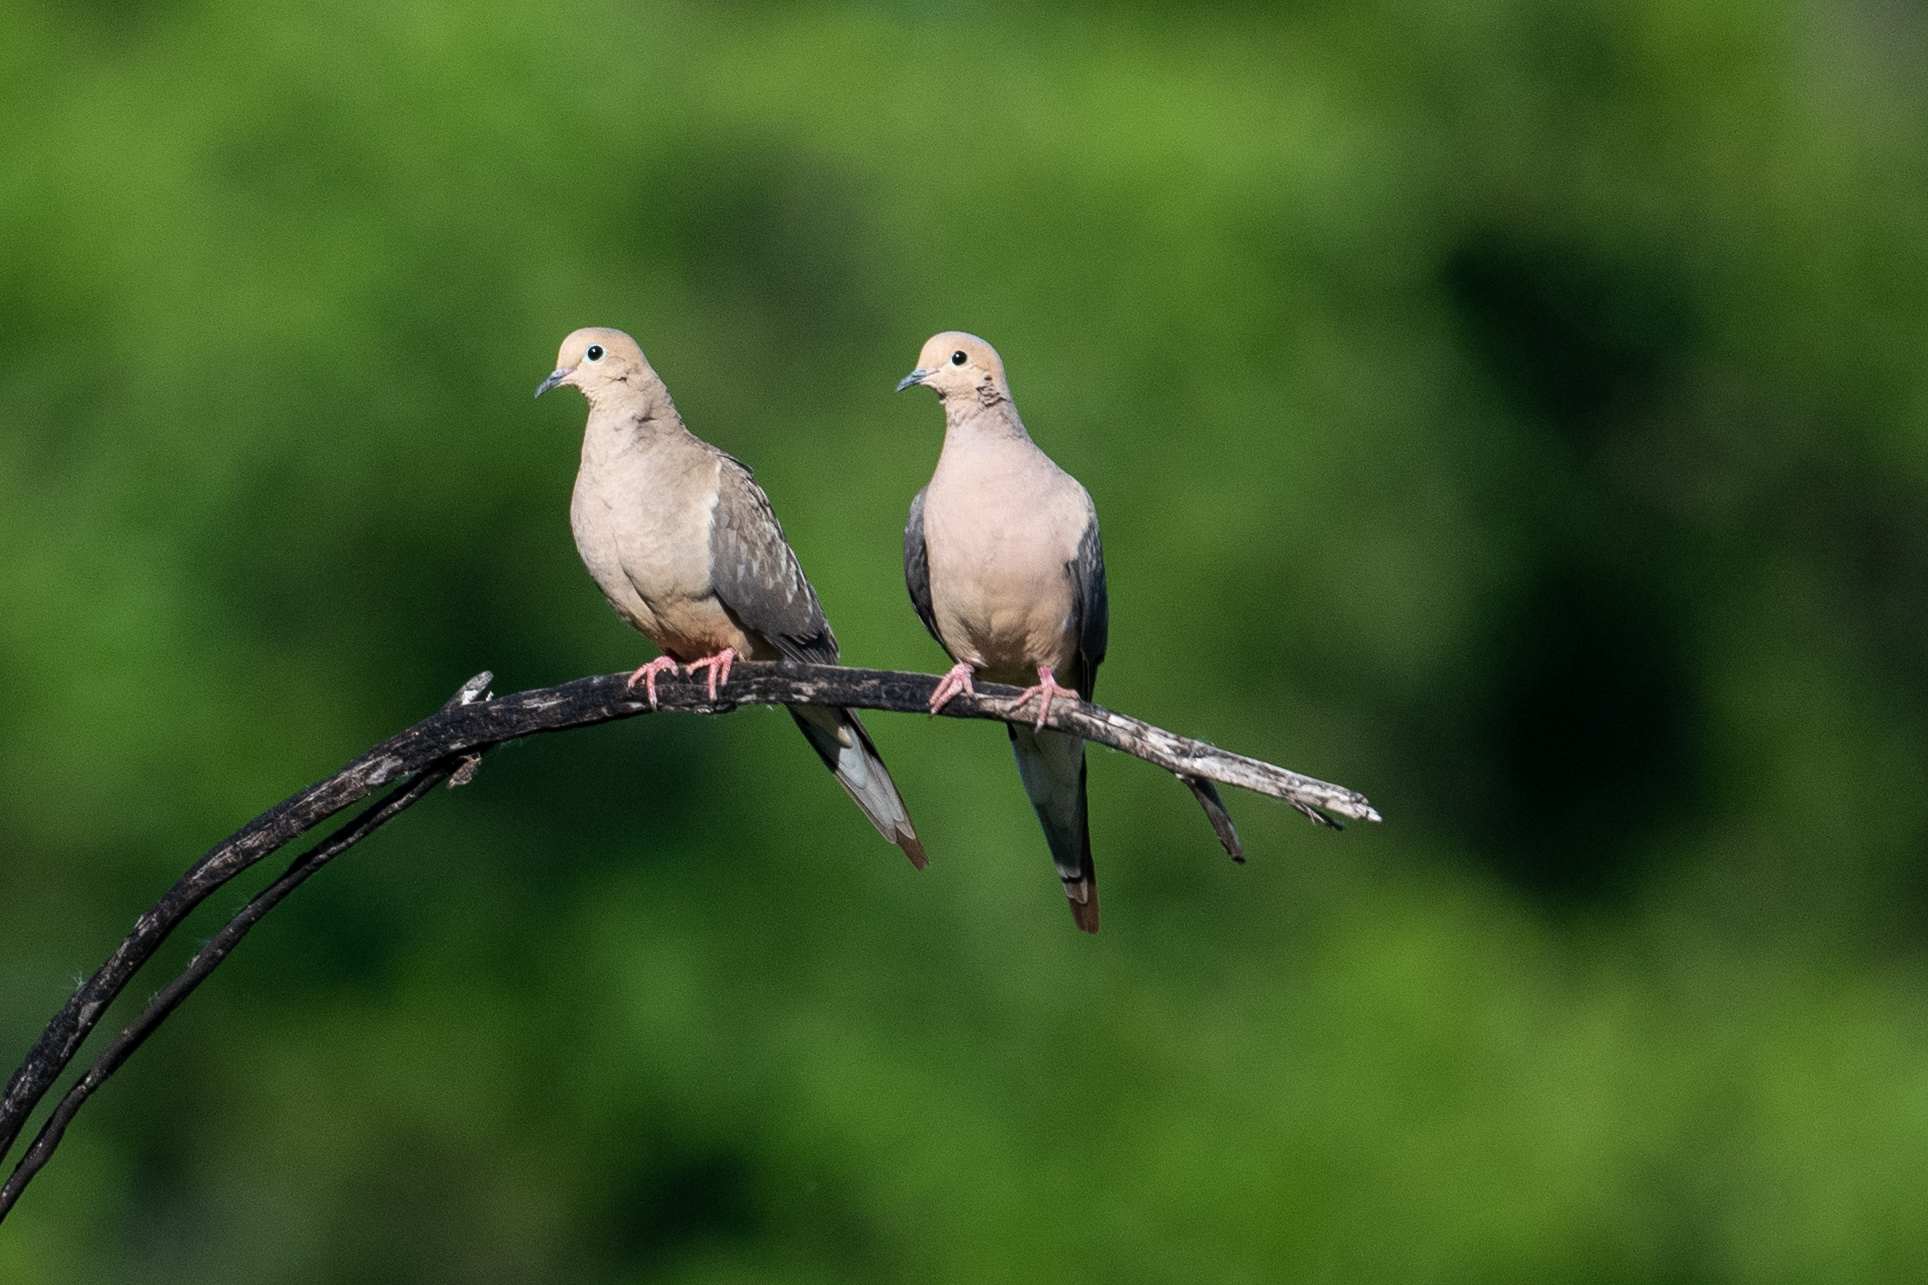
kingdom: Animalia
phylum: Chordata
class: Aves
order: Columbiformes
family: Columbidae
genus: Zenaida
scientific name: Zenaida macroura
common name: Mourning dove
